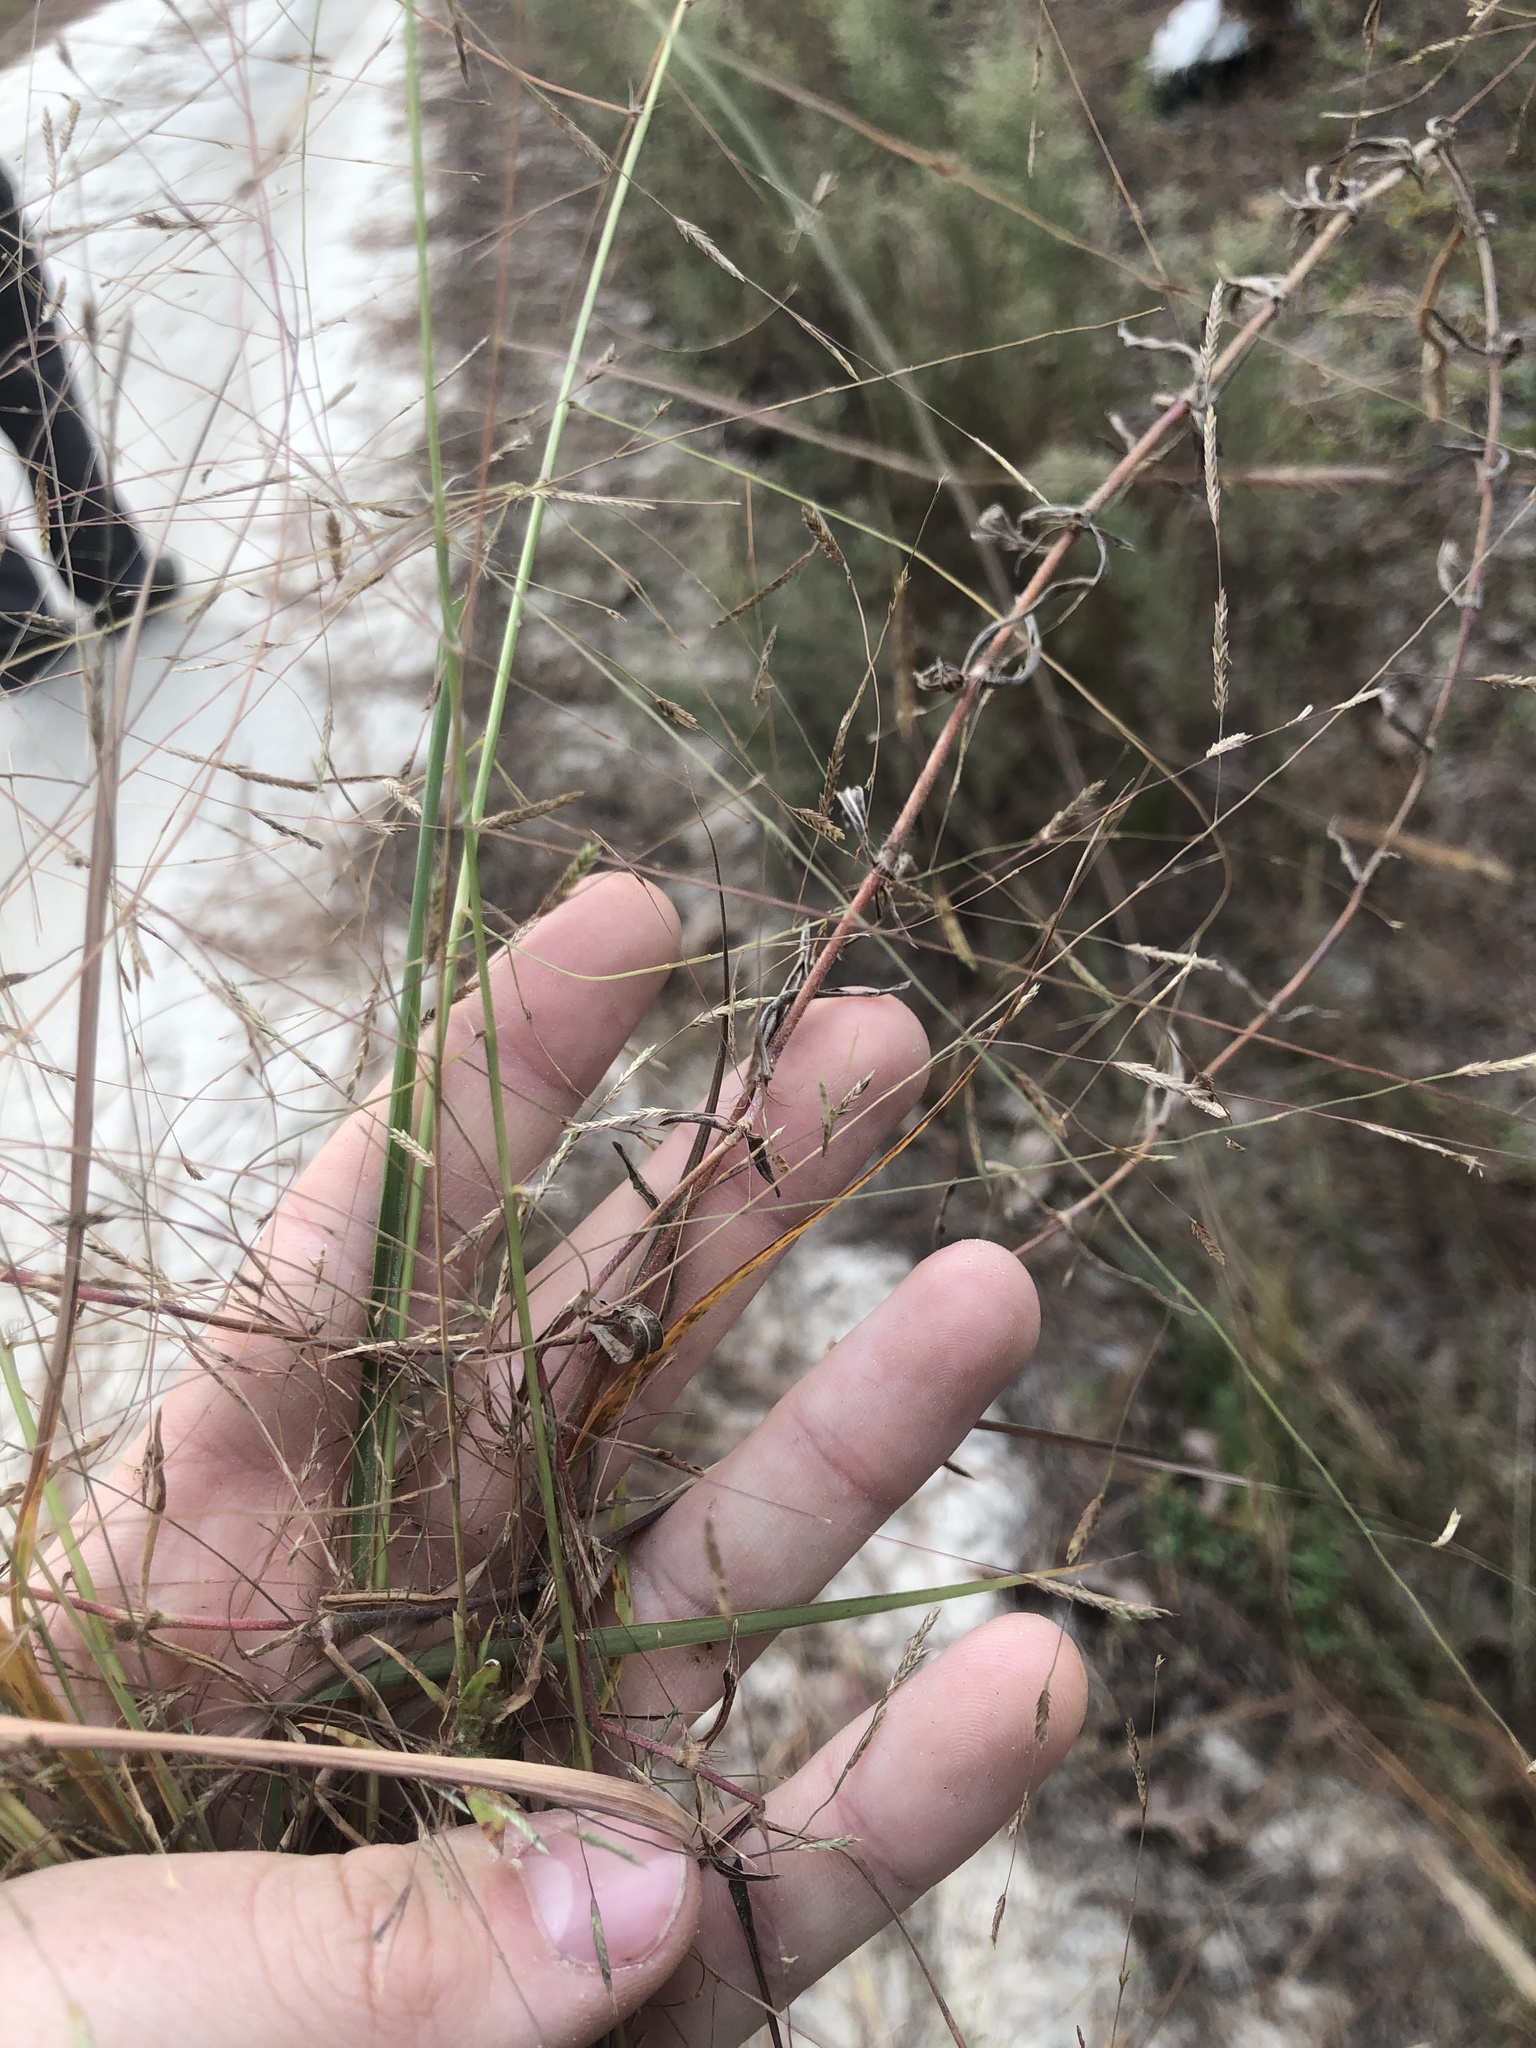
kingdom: Plantae
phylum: Tracheophyta
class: Liliopsida
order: Poales
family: Poaceae
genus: Eragrostis
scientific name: Eragrostis refracta
